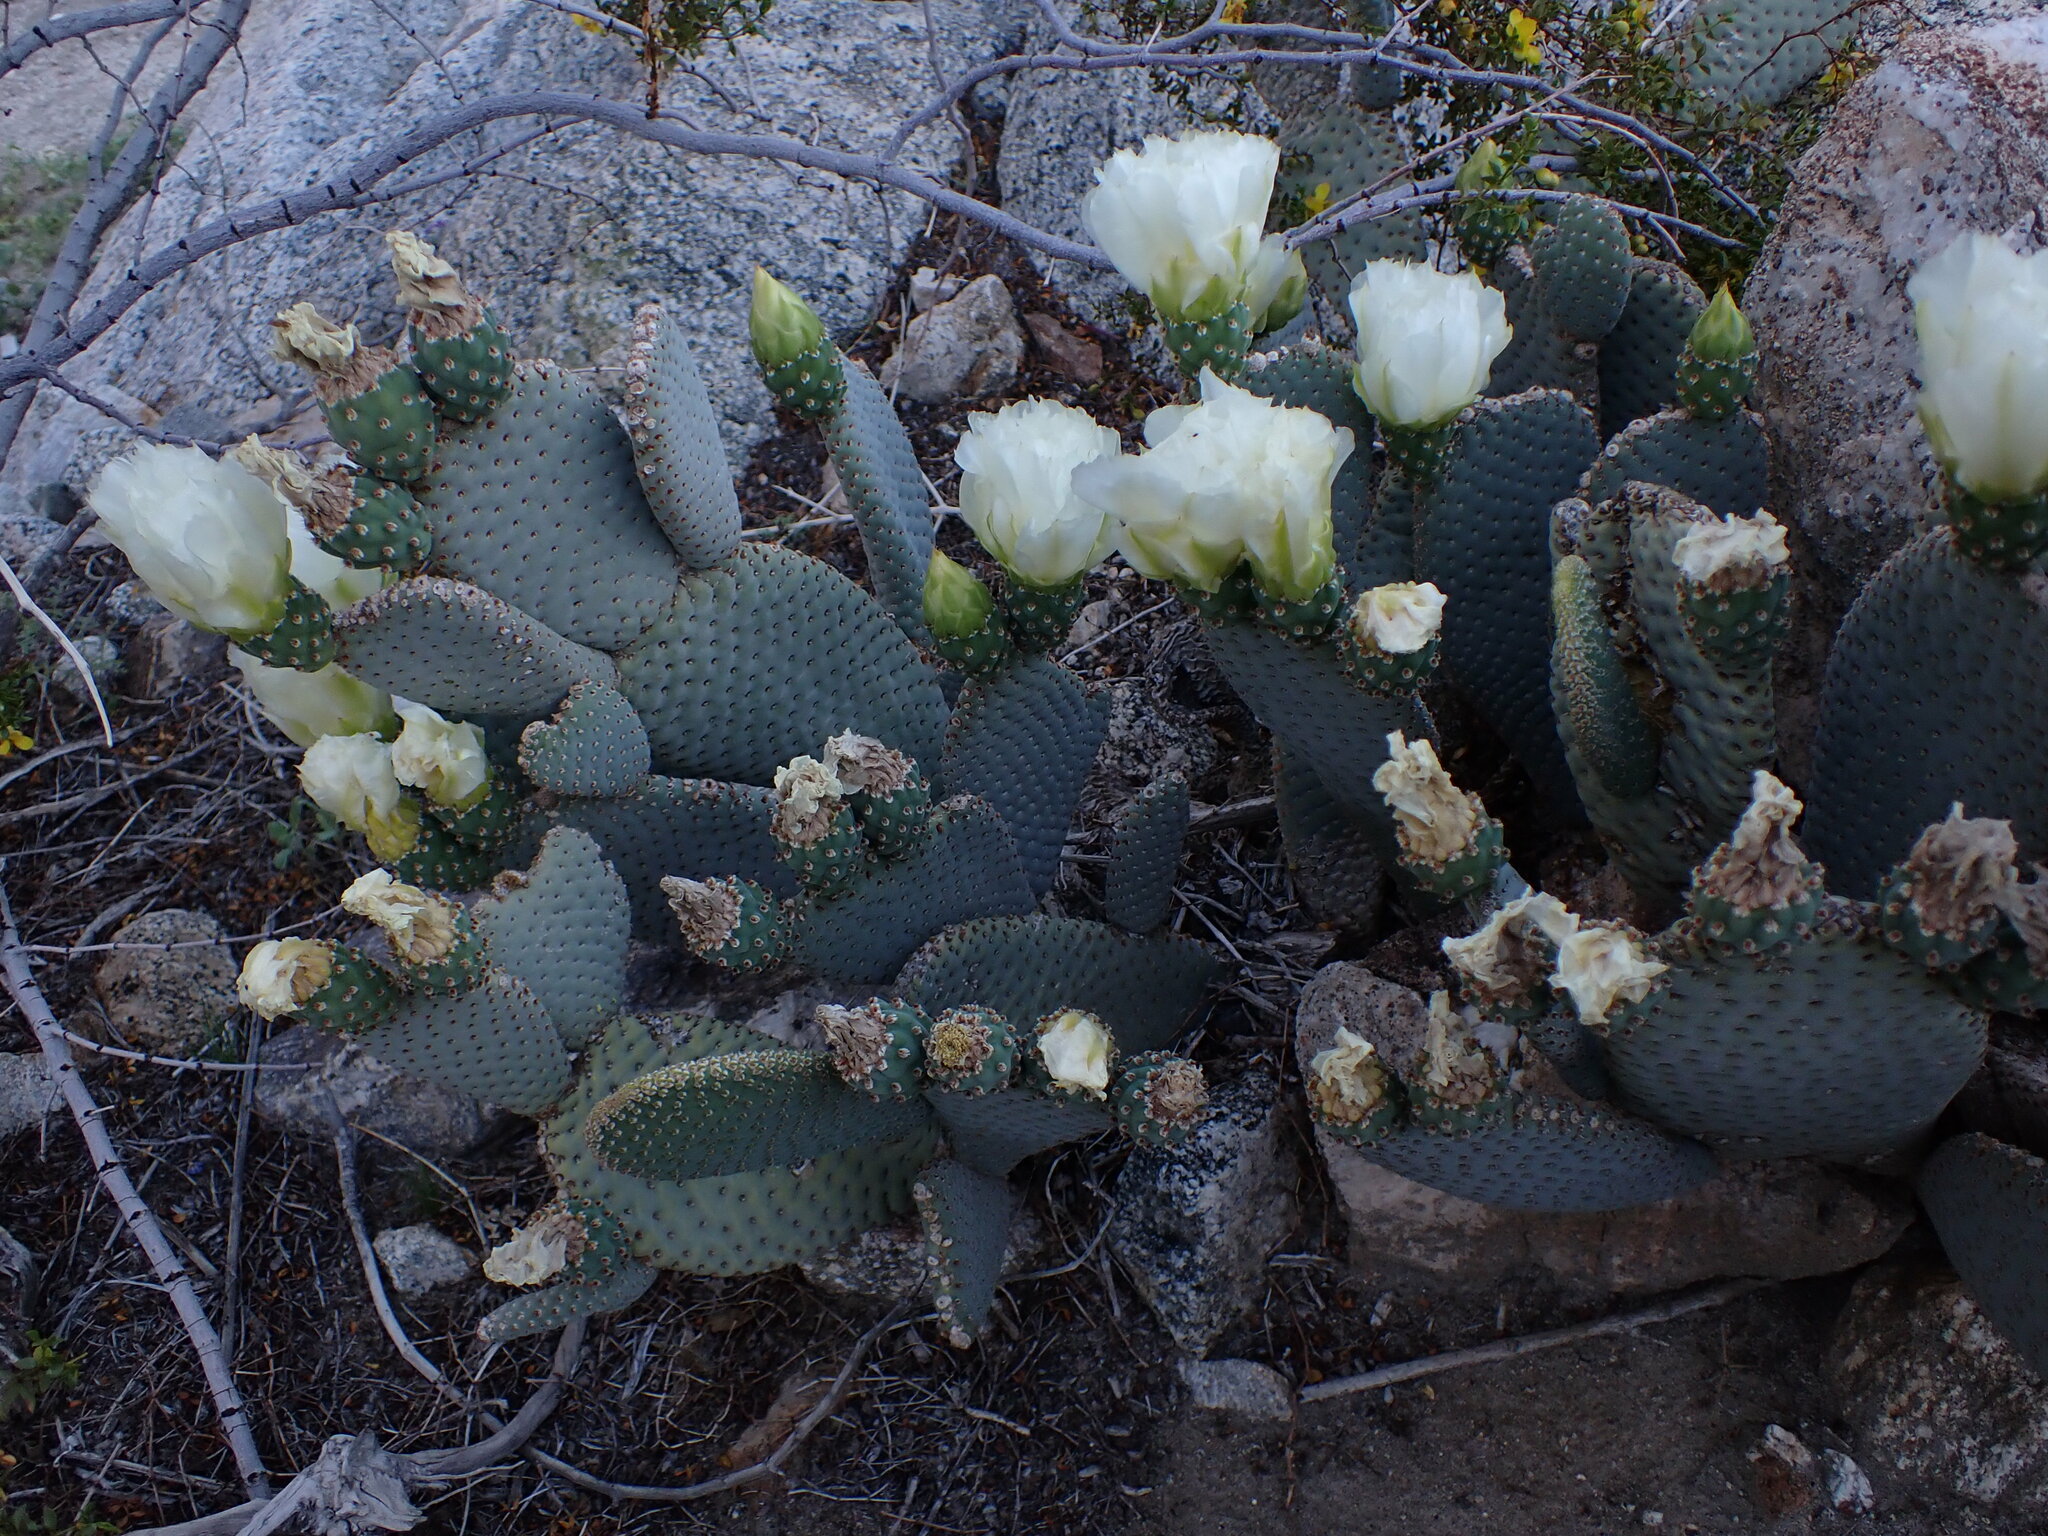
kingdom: Plantae
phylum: Tracheophyta
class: Magnoliopsida
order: Caryophyllales
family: Cactaceae
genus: Opuntia
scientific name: Opuntia basilaris
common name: Beavertail prickly-pear
